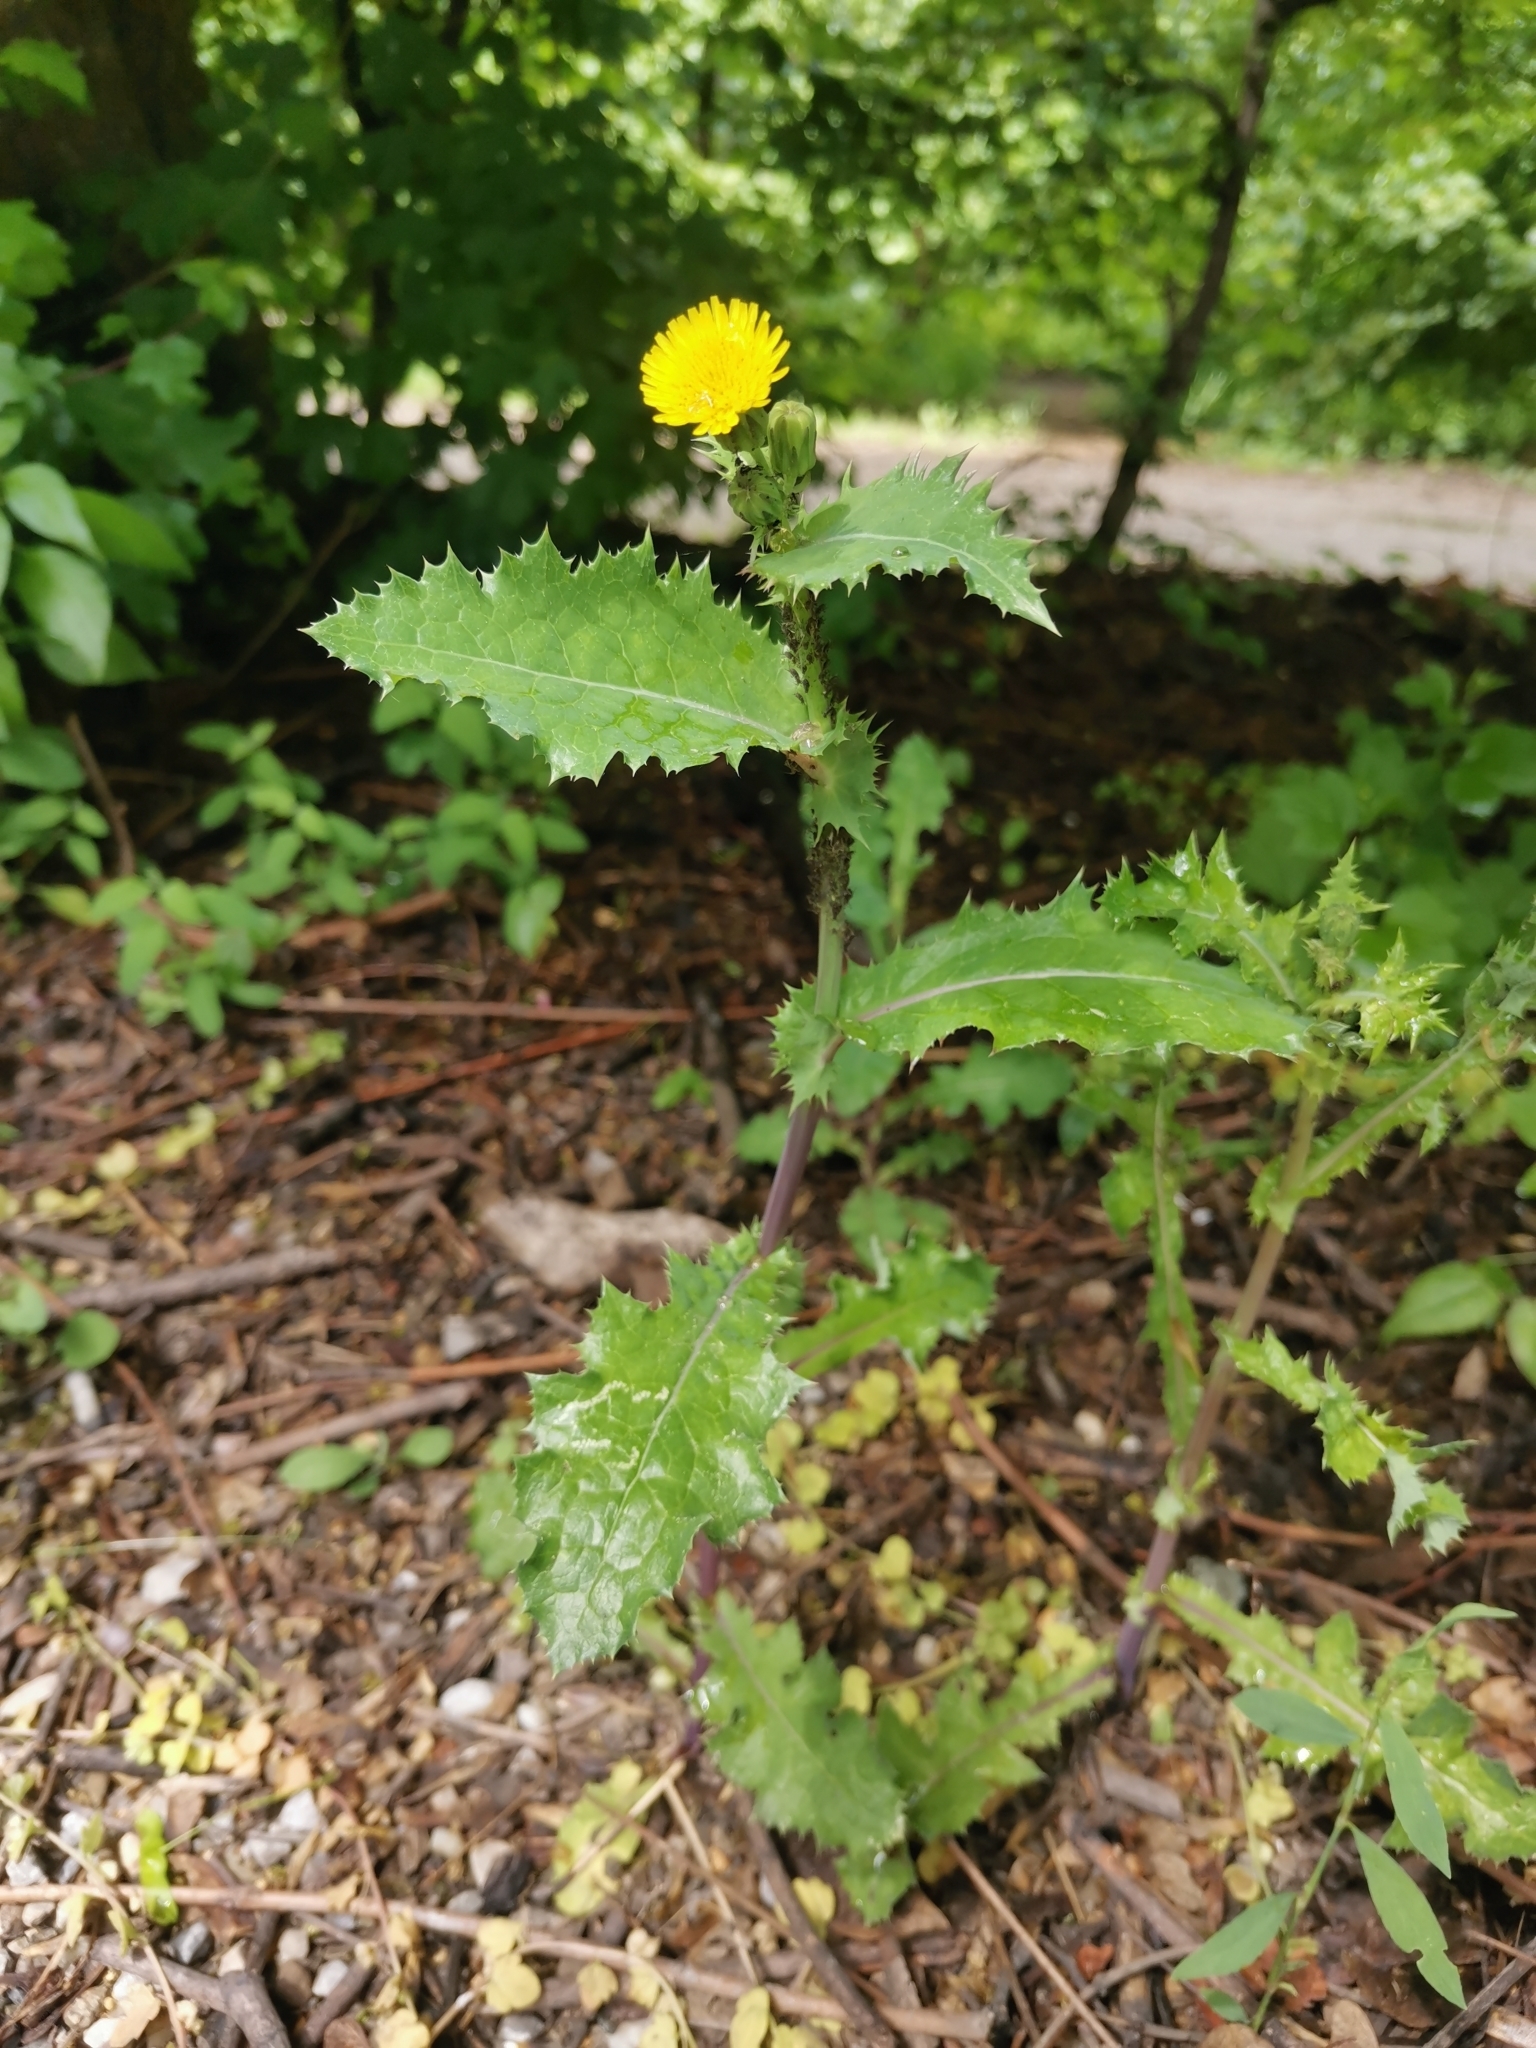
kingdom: Plantae
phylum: Tracheophyta
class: Magnoliopsida
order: Asterales
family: Asteraceae
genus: Sonchus
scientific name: Sonchus asper
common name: Prickly sow-thistle
